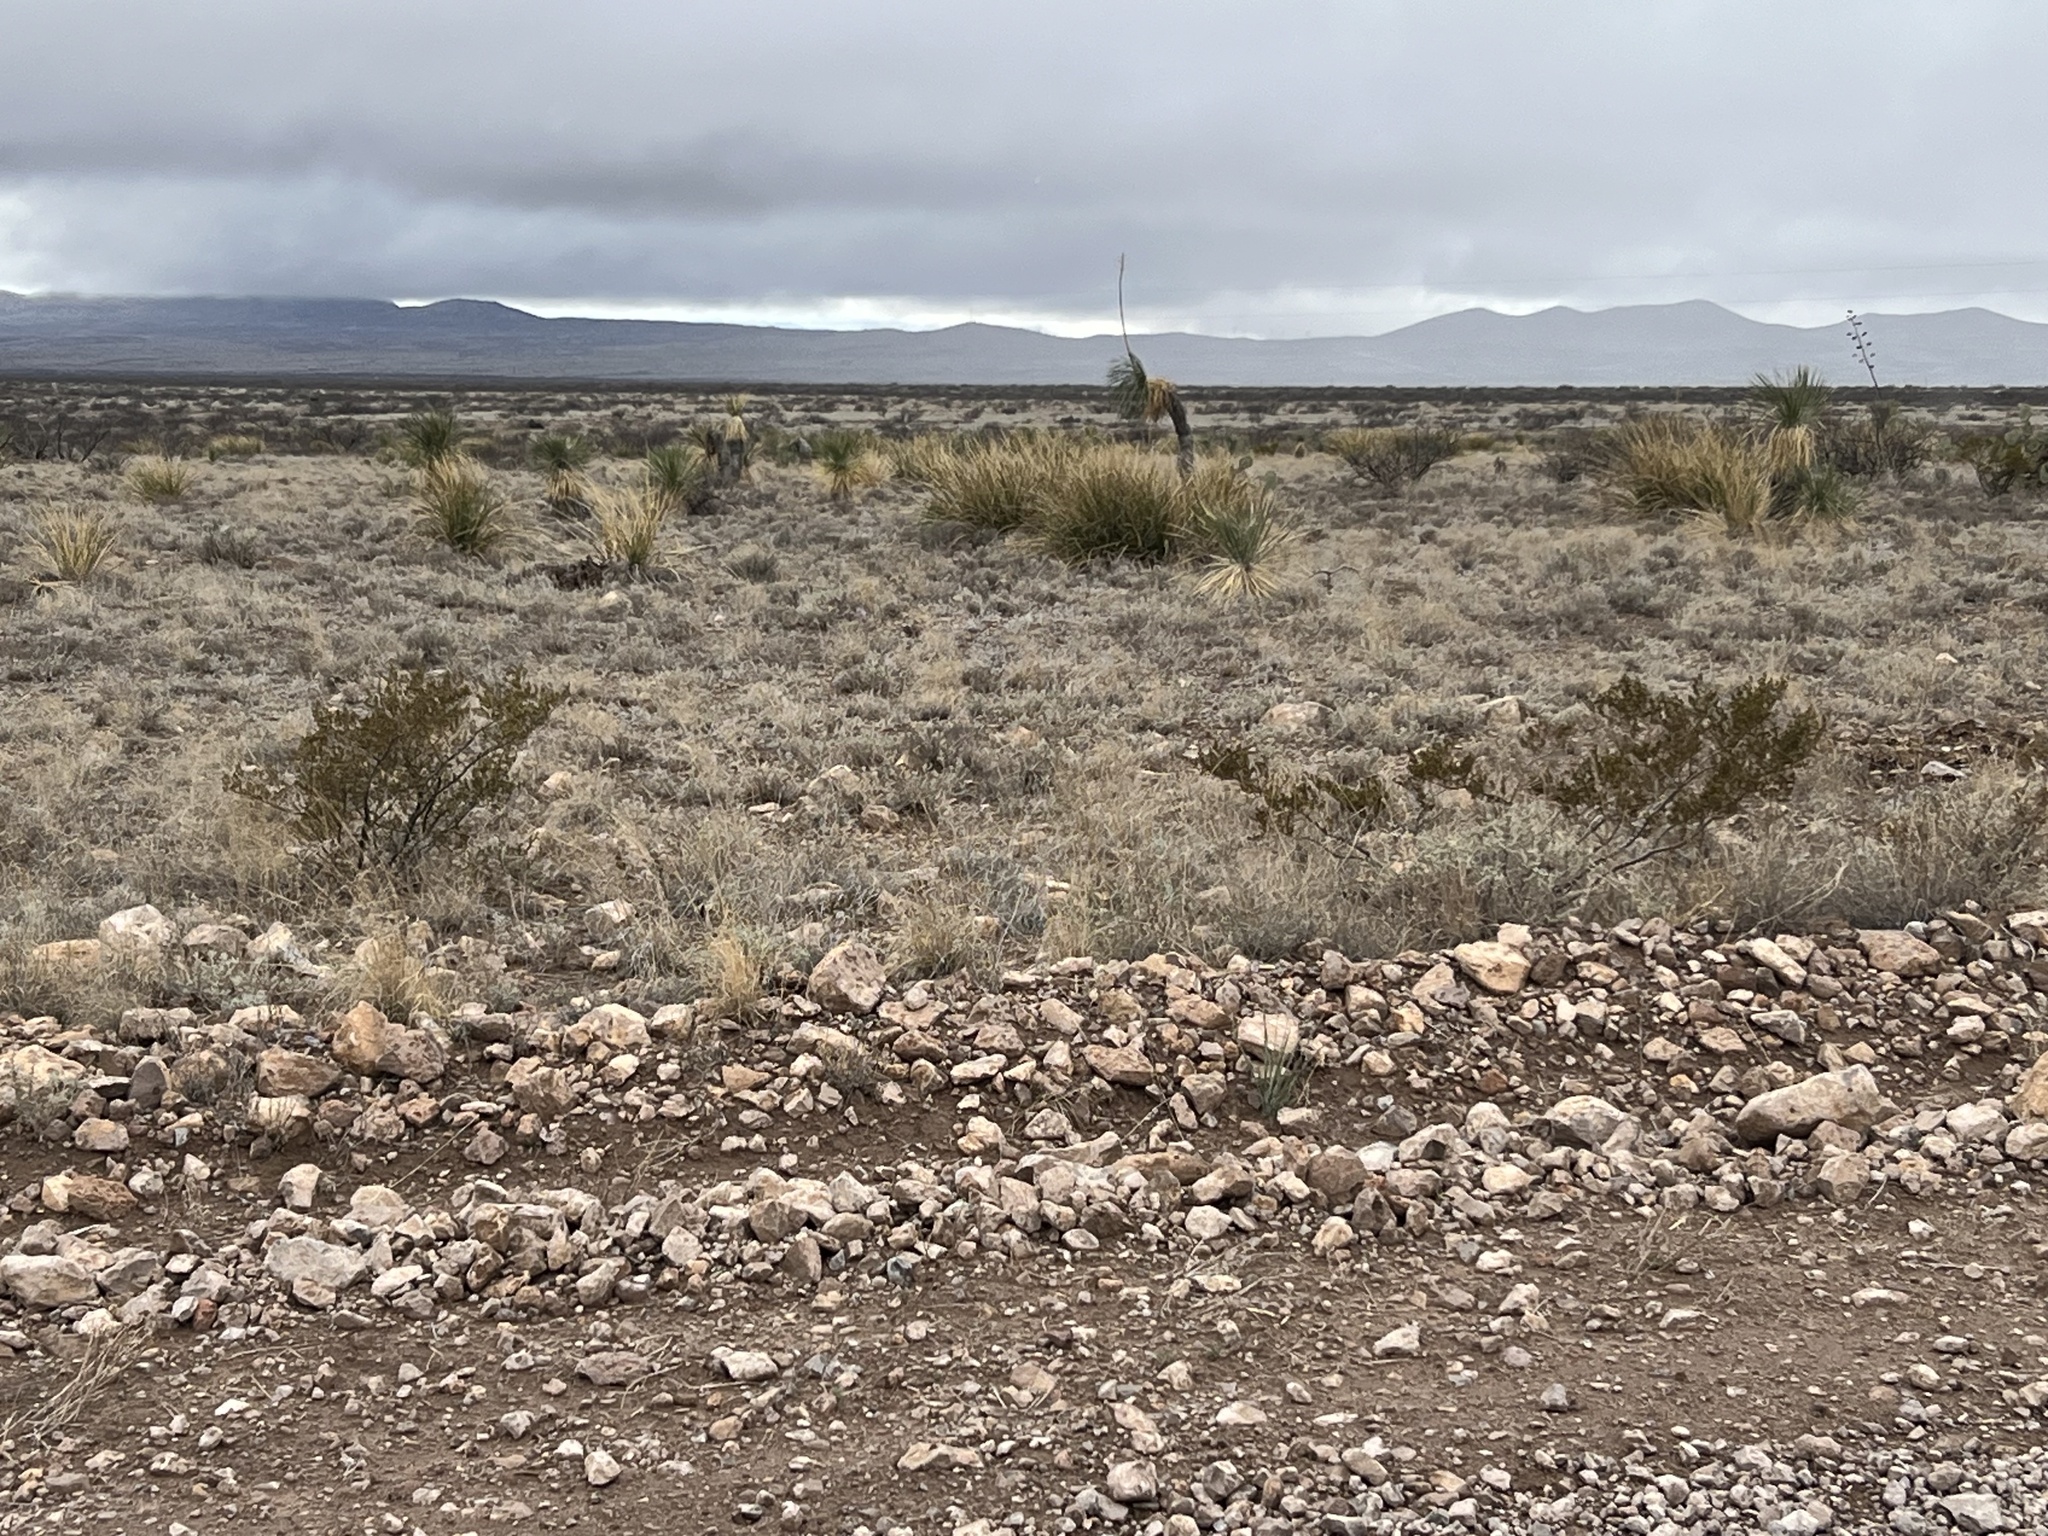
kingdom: Plantae
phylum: Tracheophyta
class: Magnoliopsida
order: Zygophyllales
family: Zygophyllaceae
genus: Larrea
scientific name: Larrea tridentata
